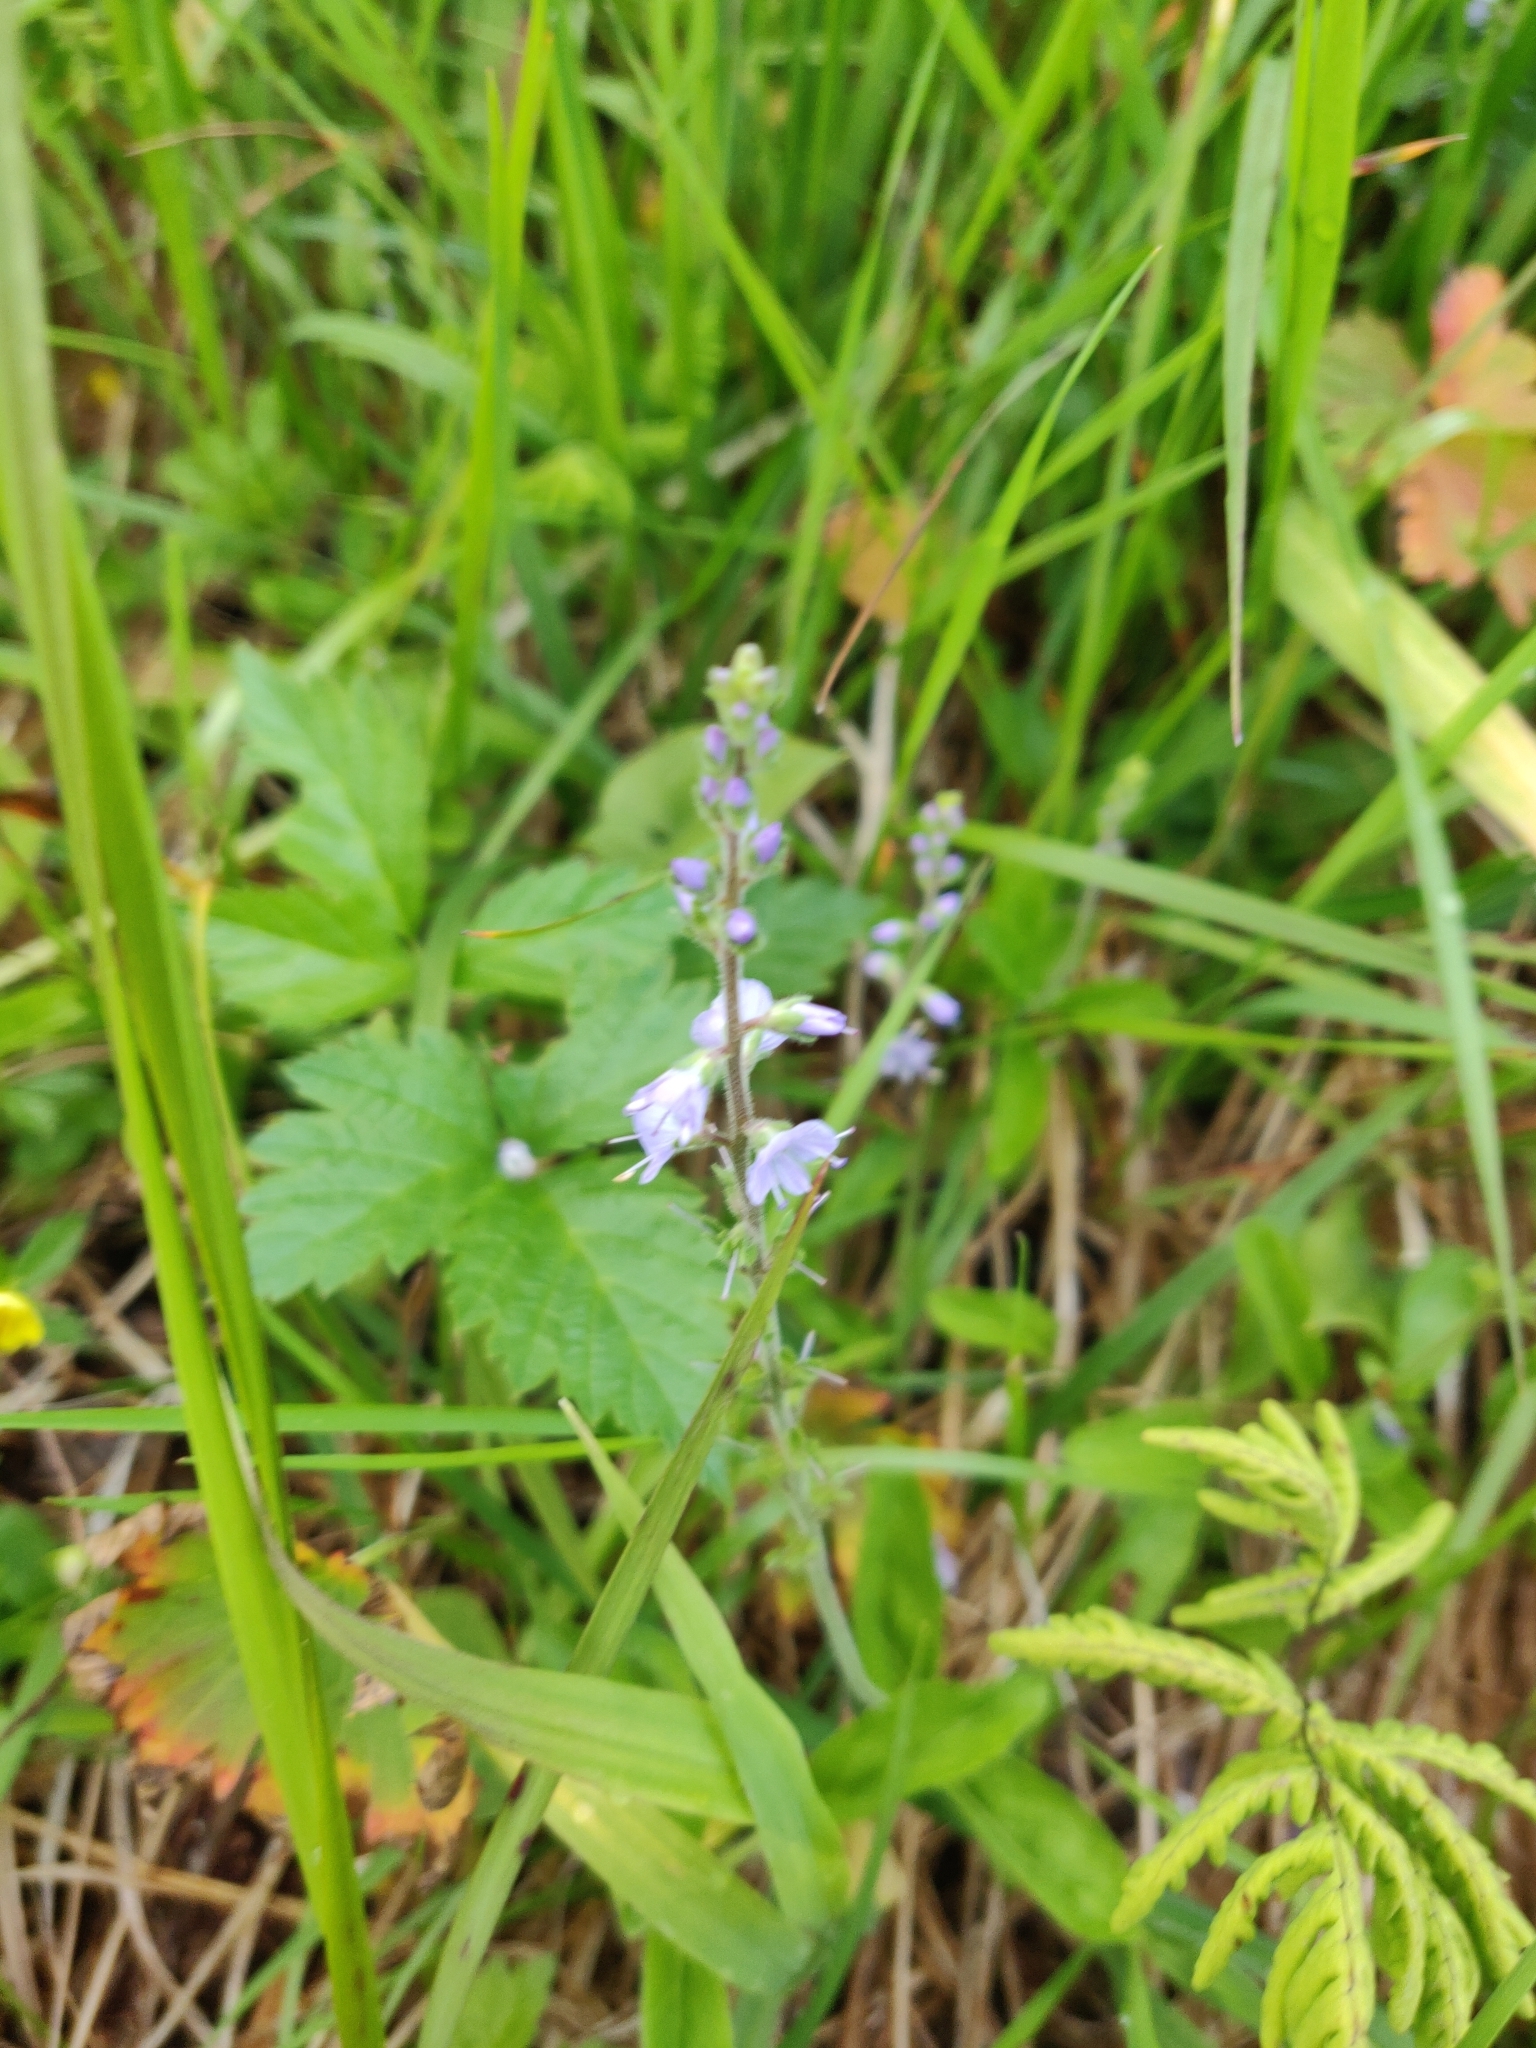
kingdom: Plantae
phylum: Tracheophyta
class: Magnoliopsida
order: Lamiales
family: Plantaginaceae
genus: Veronica
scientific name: Veronica officinalis
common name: Common speedwell
